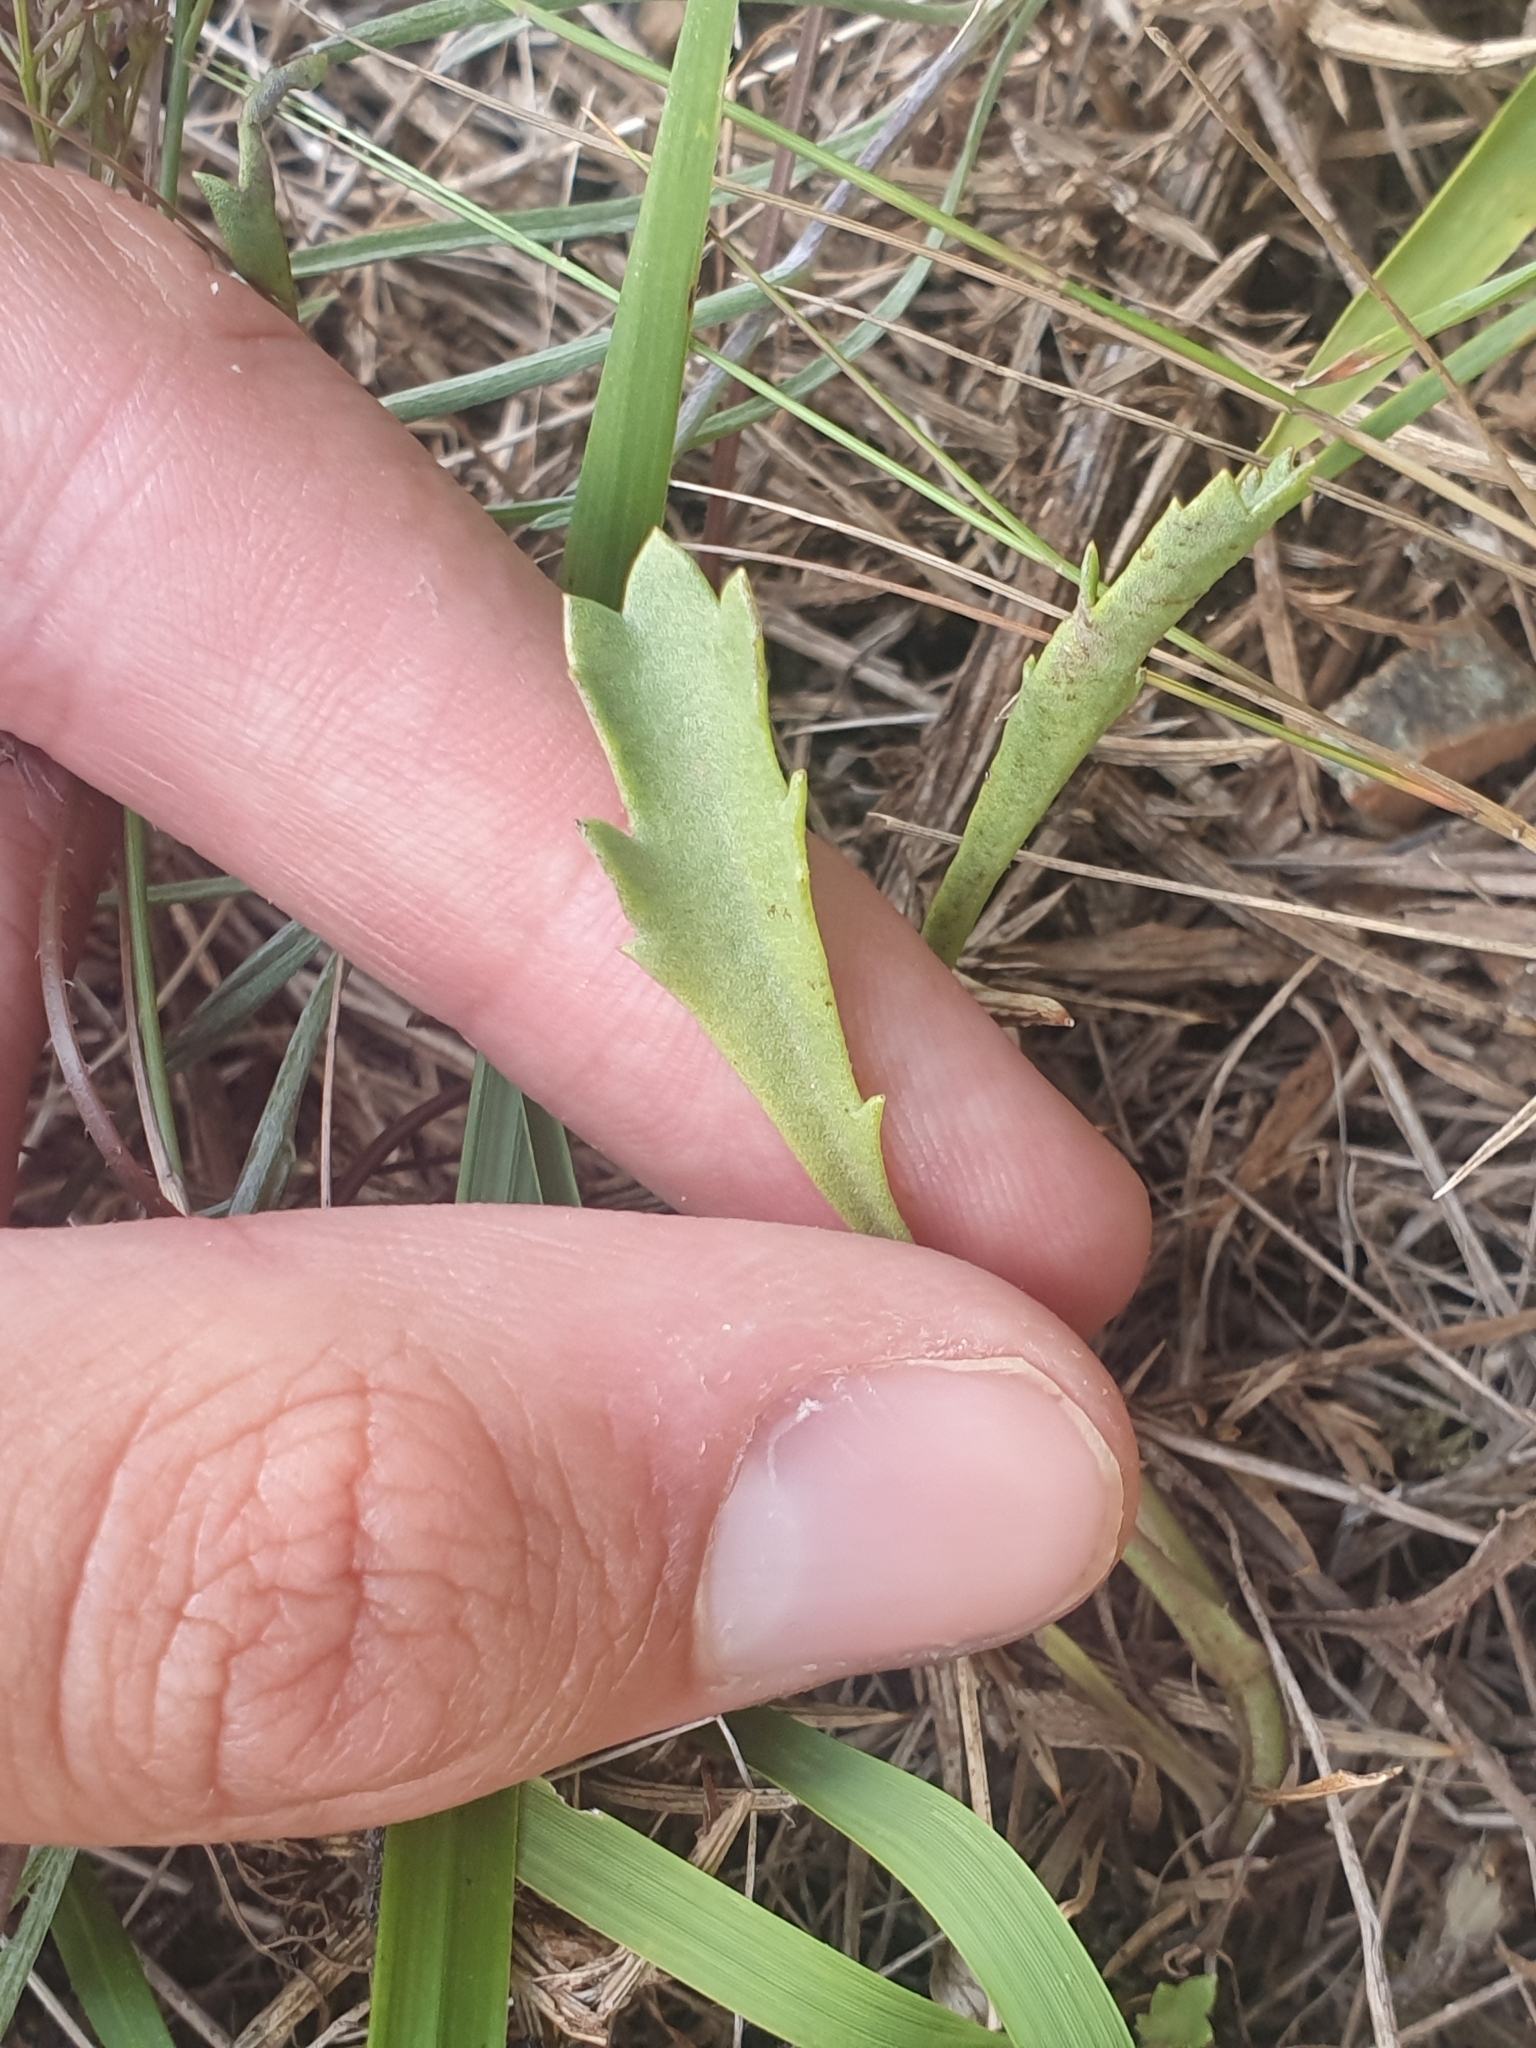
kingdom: Plantae
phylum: Tracheophyta
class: Magnoliopsida
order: Asterales
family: Asteraceae
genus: Leucanthemum
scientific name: Leucanthemum gallaecicum
